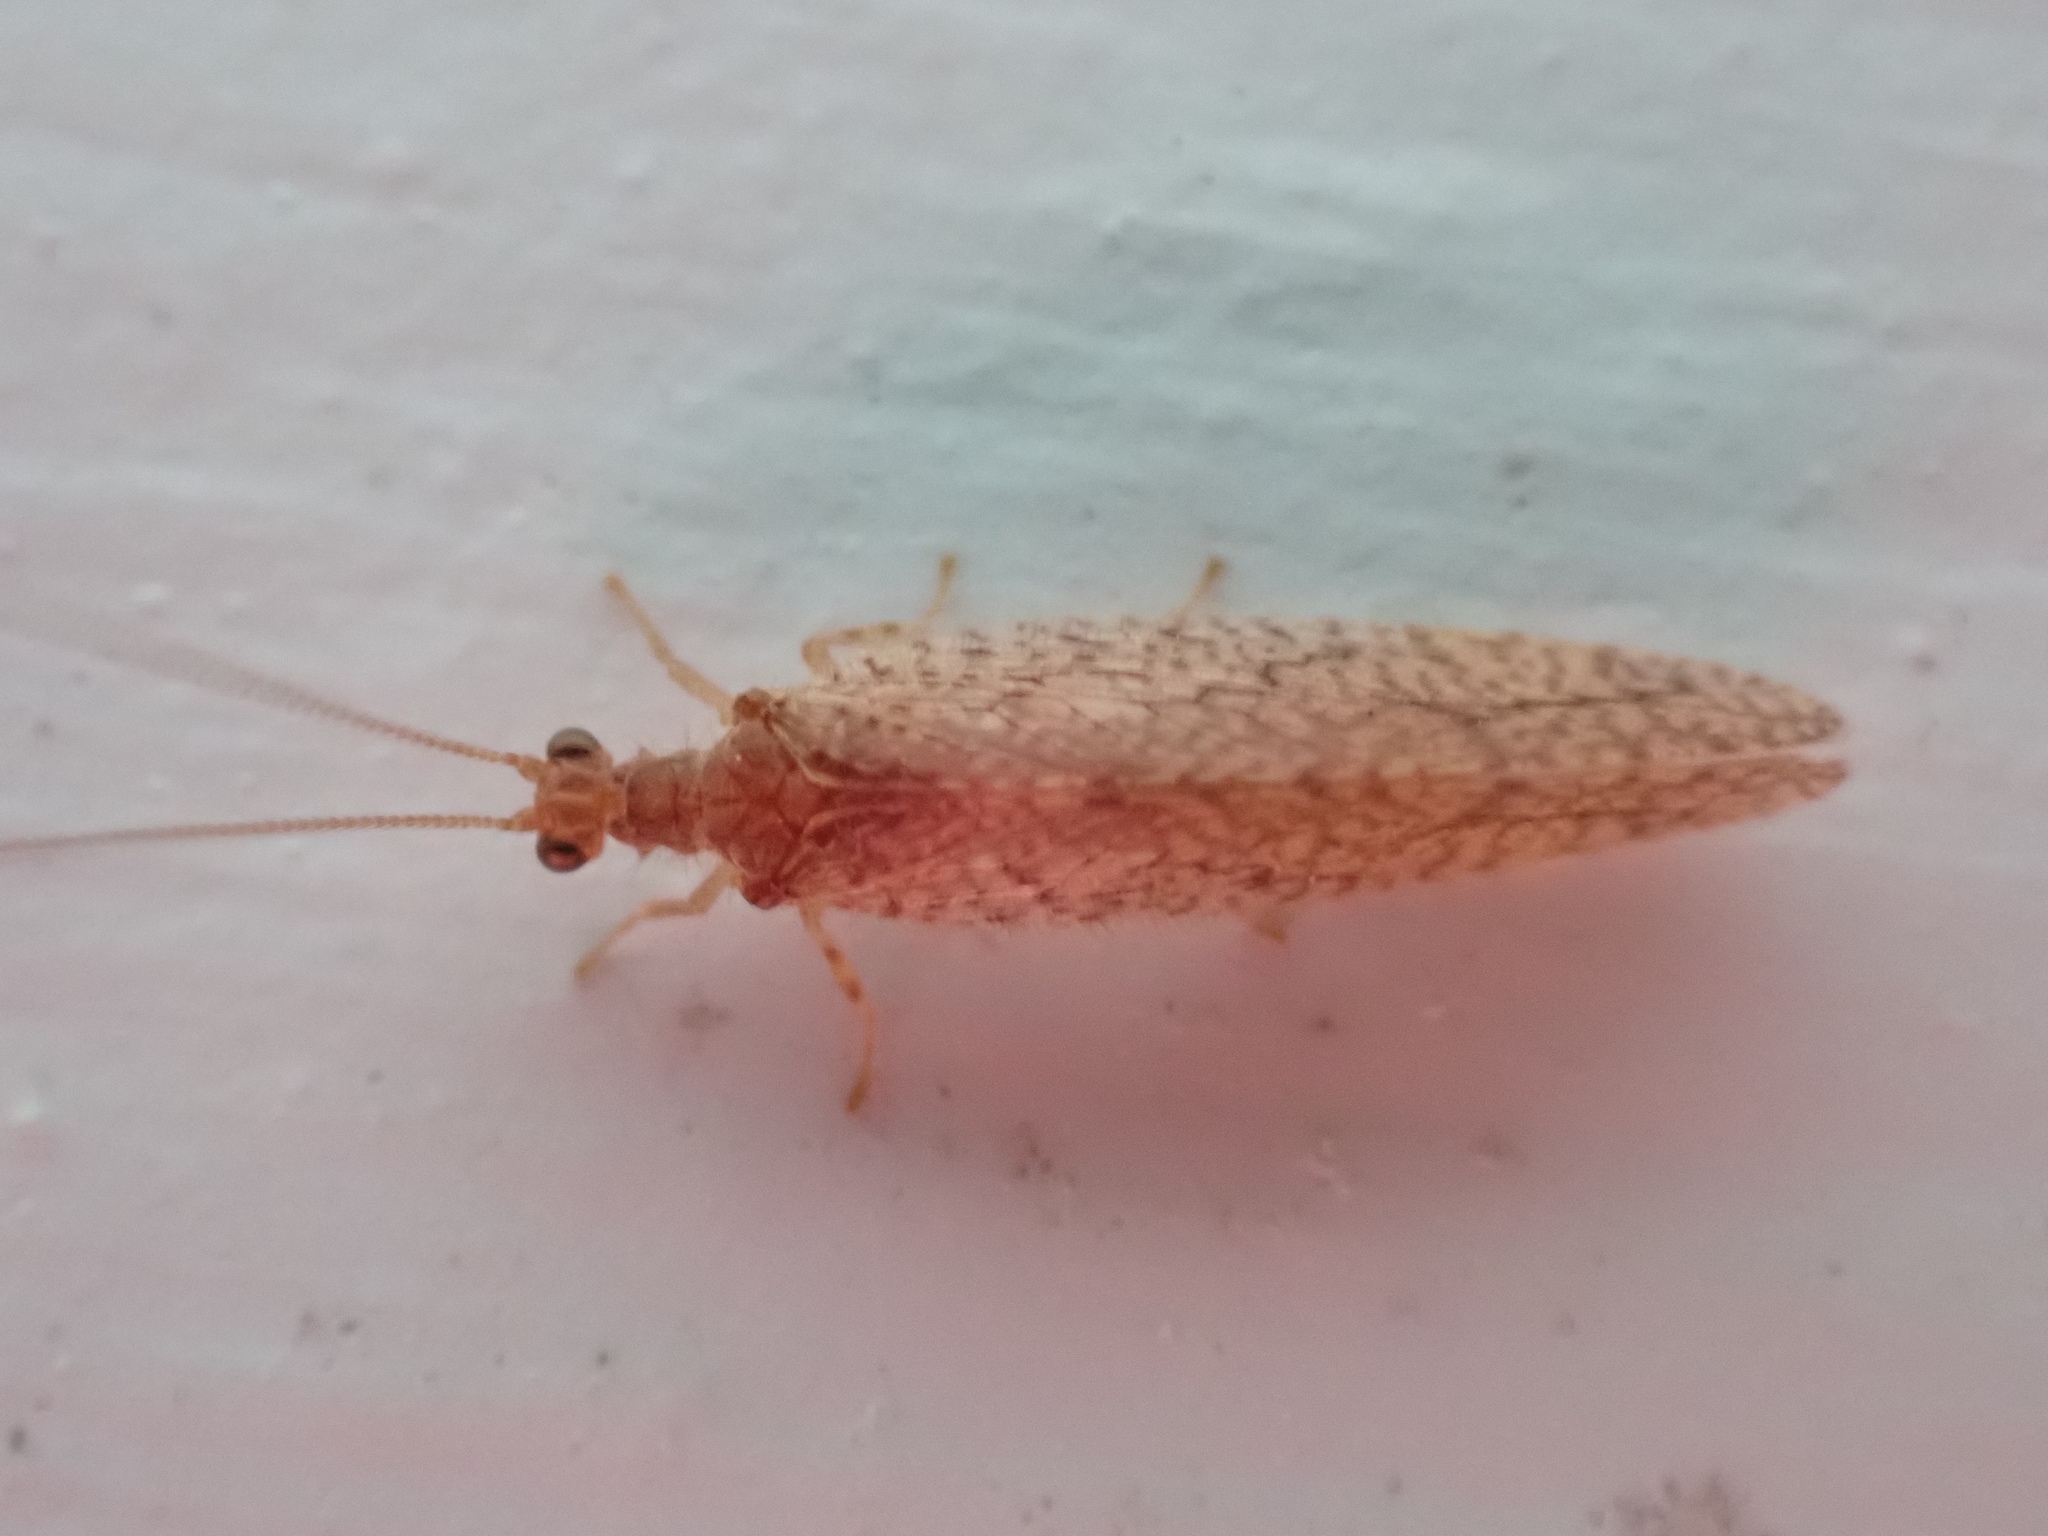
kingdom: Animalia
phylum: Arthropoda
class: Insecta
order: Neuroptera
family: Hemerobiidae
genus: Micromus
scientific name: Micromus posticus
